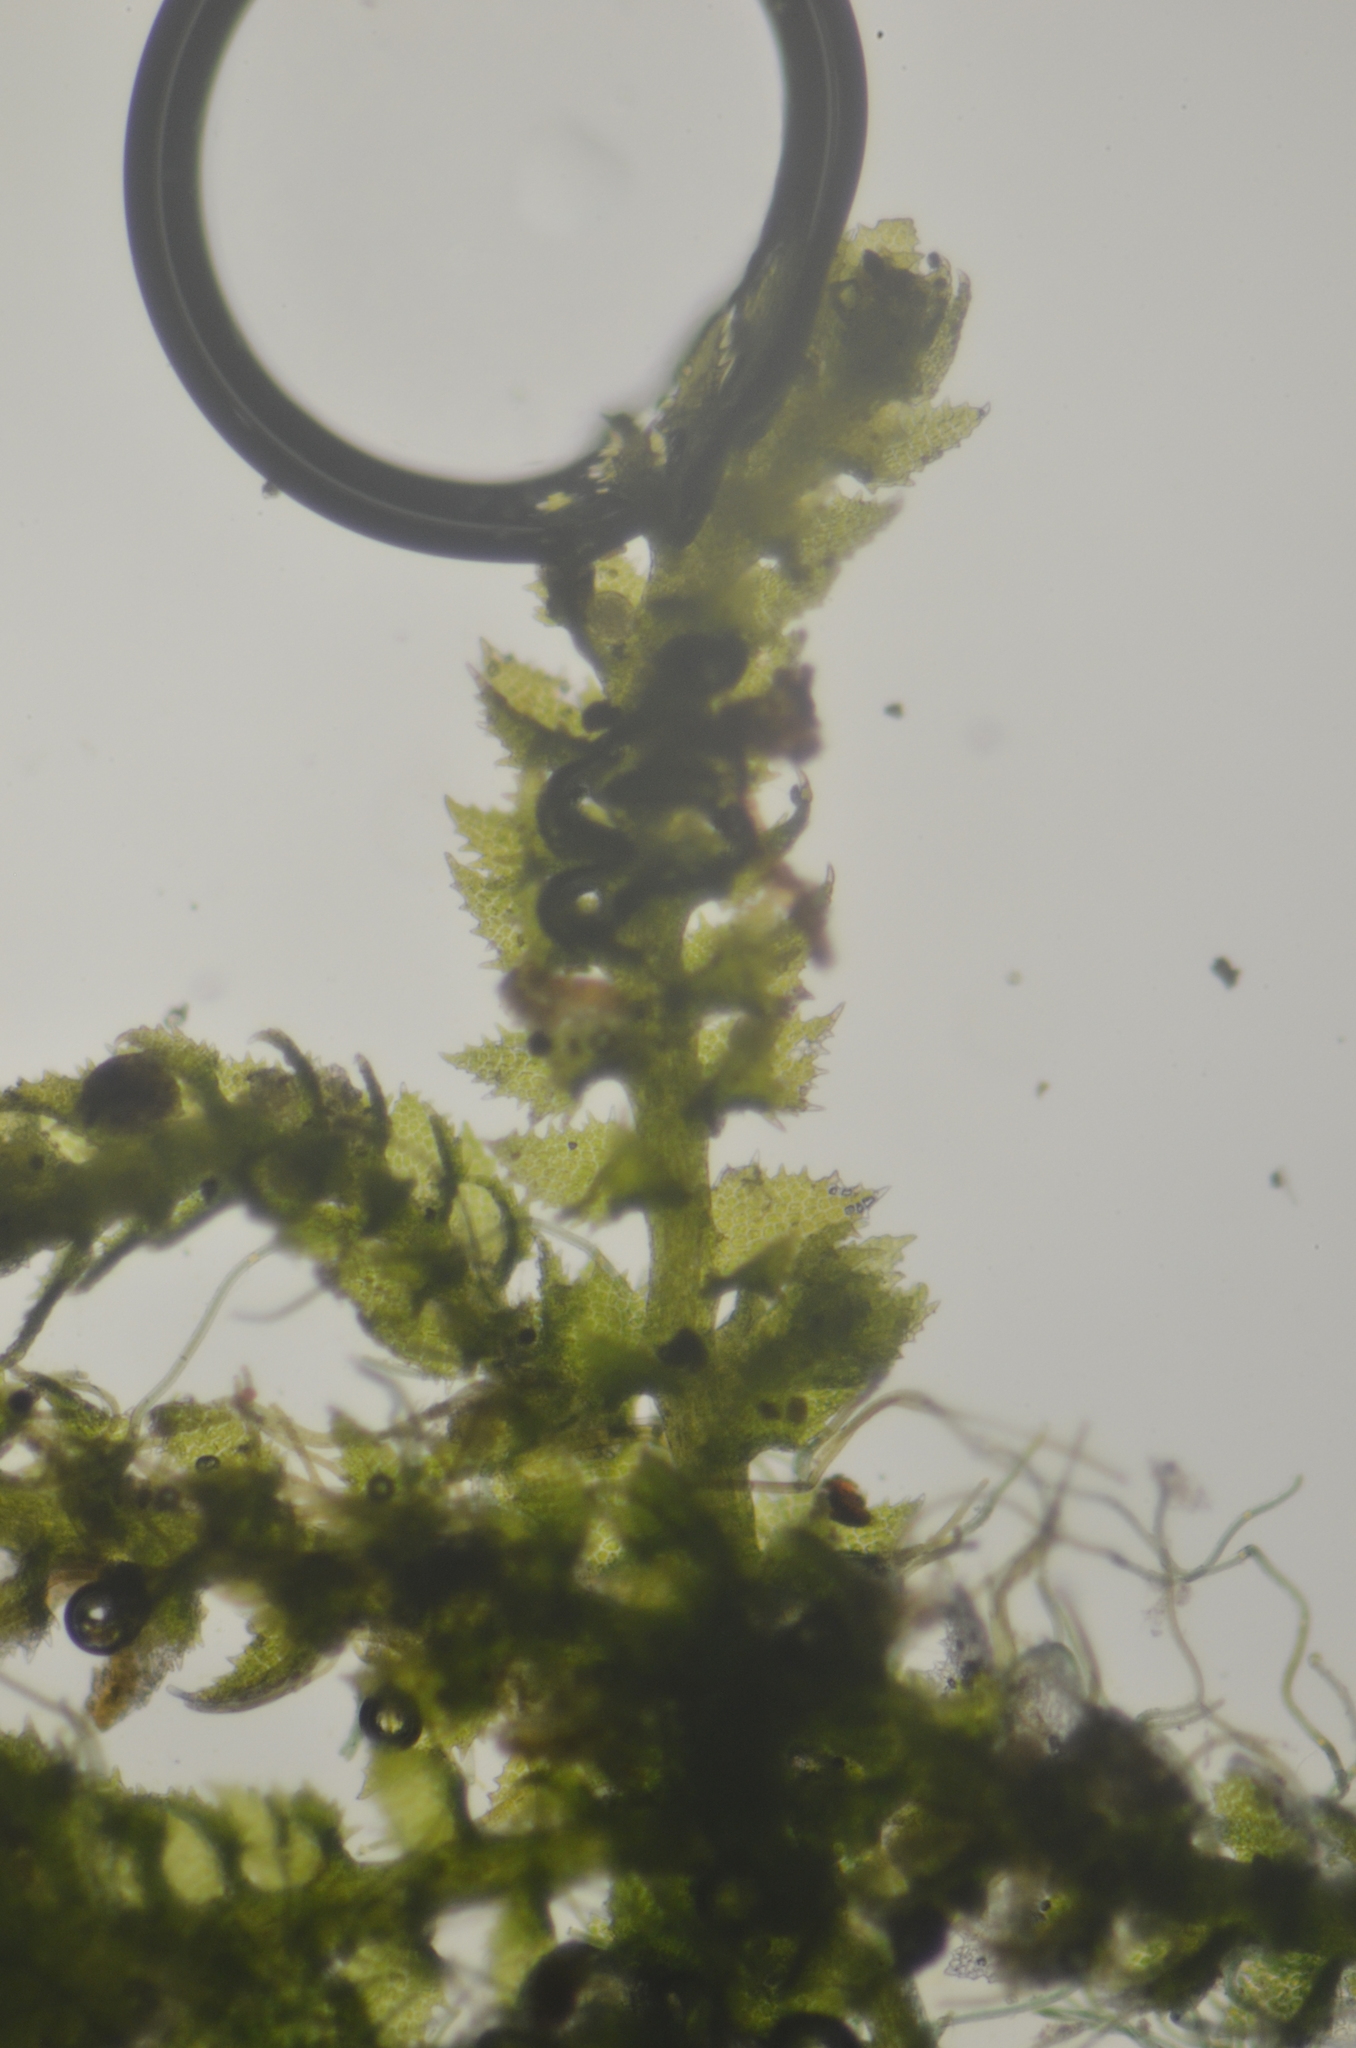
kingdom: Plantae
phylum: Marchantiophyta
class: Jungermanniopsida
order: Jungermanniales
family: Cephaloziellaceae
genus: Cephaloziella
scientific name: Cephaloziella turneri
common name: Turner's threadwort
